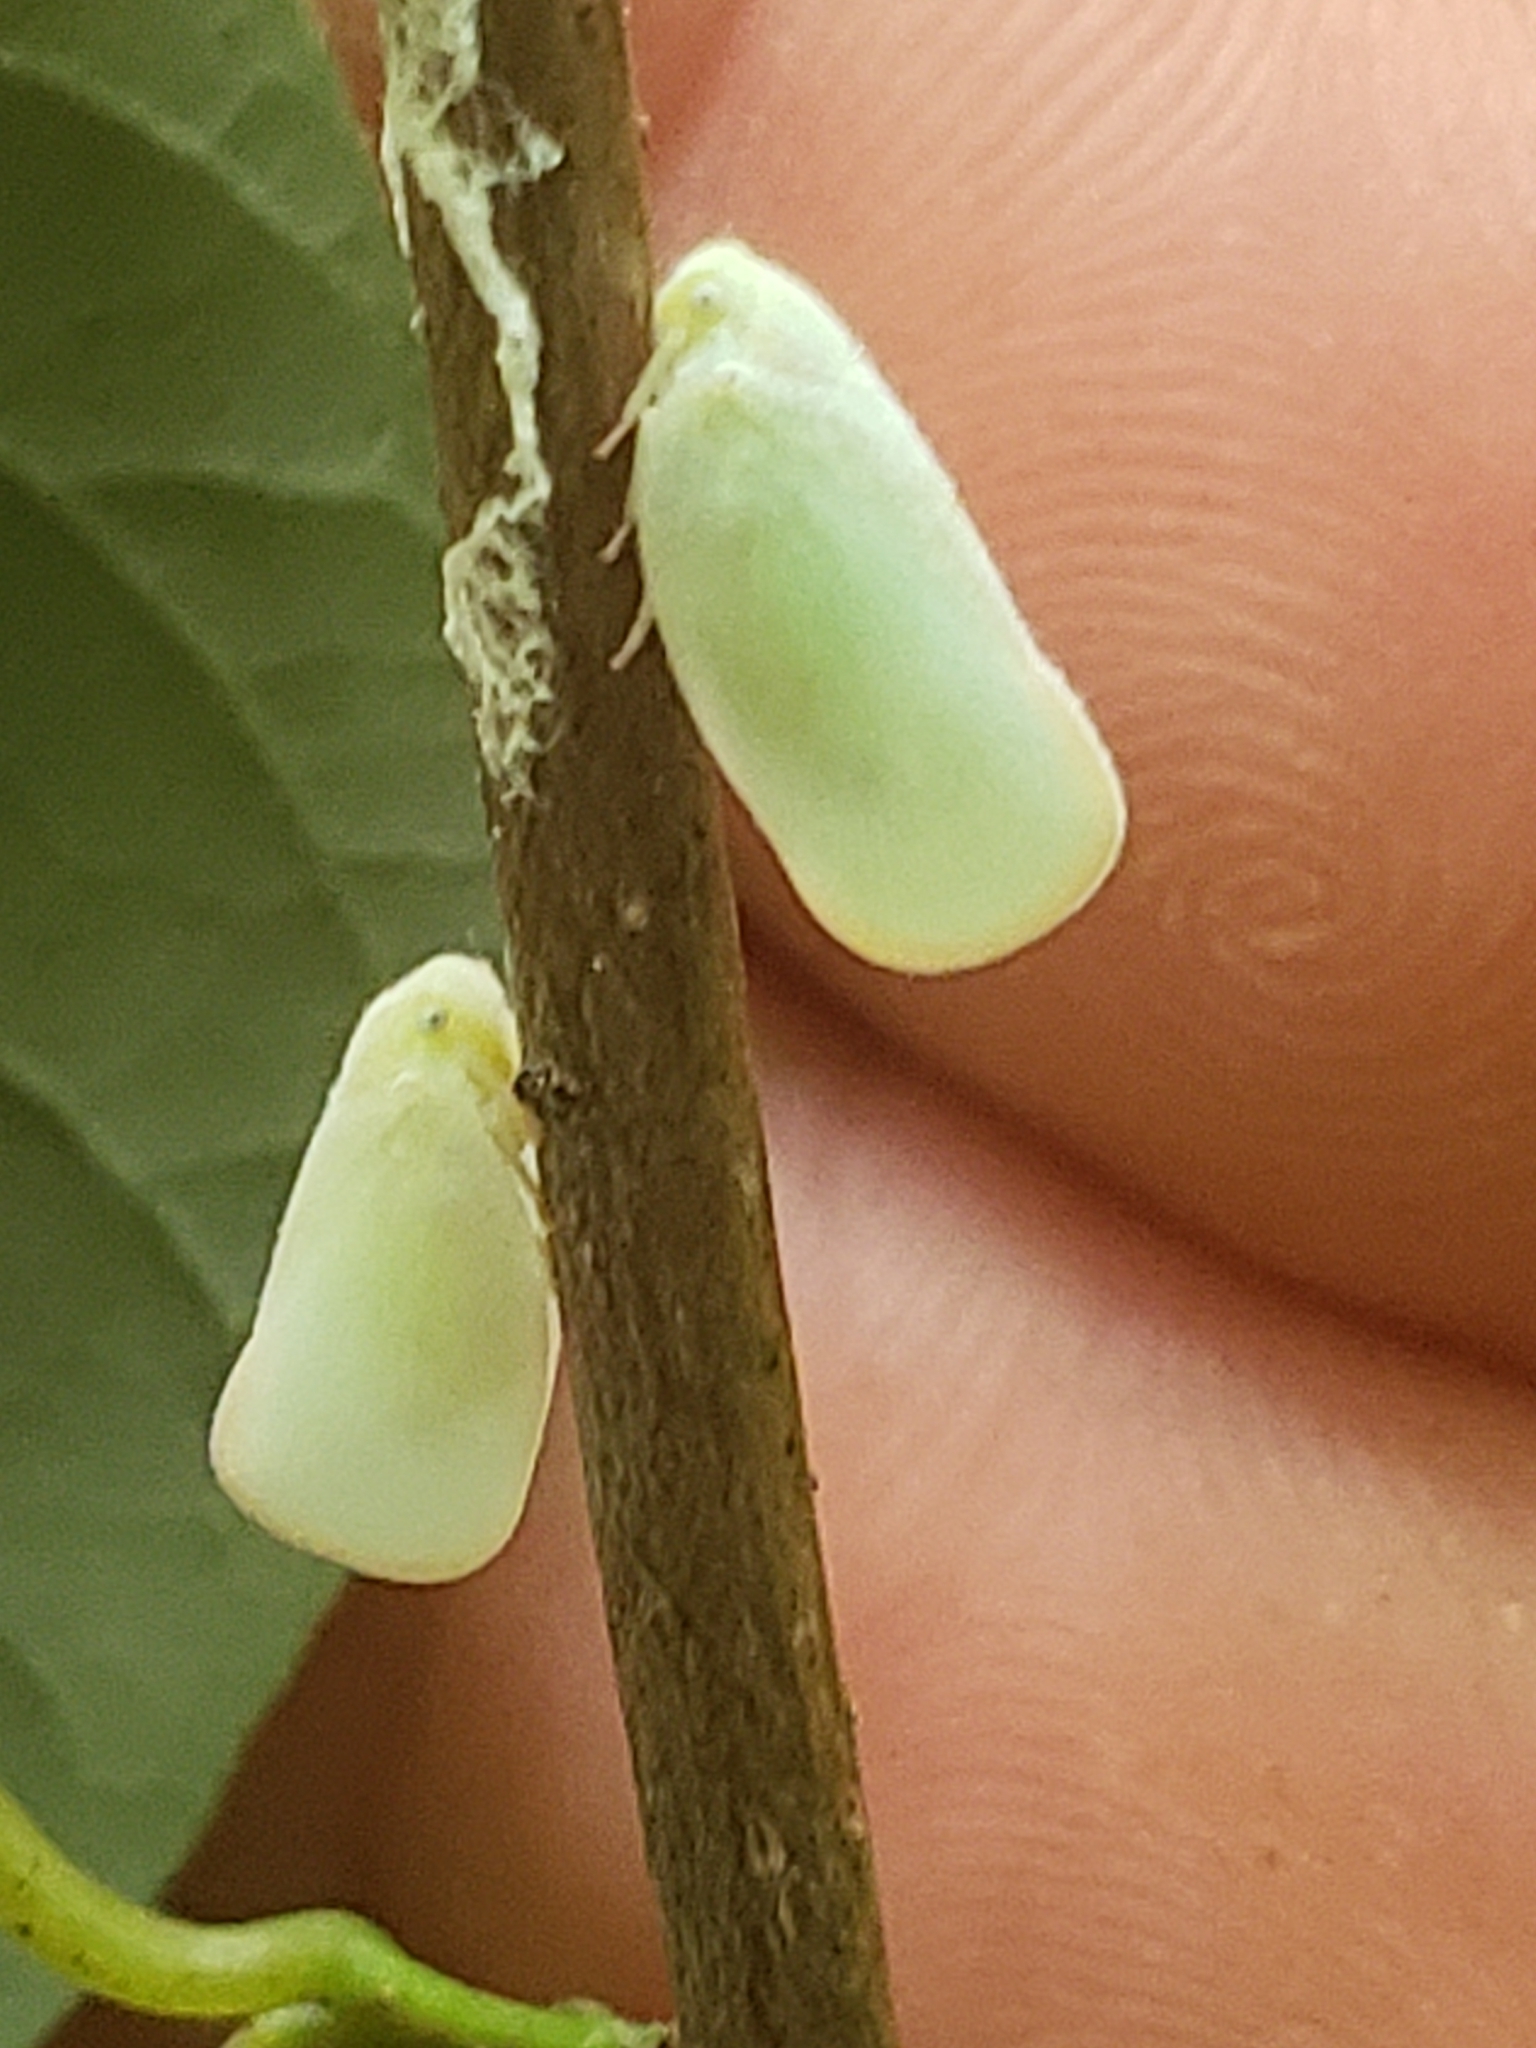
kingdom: Animalia
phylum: Arthropoda
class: Insecta
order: Hemiptera
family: Flatidae
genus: Ormenoides
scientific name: Ormenoides venusta
